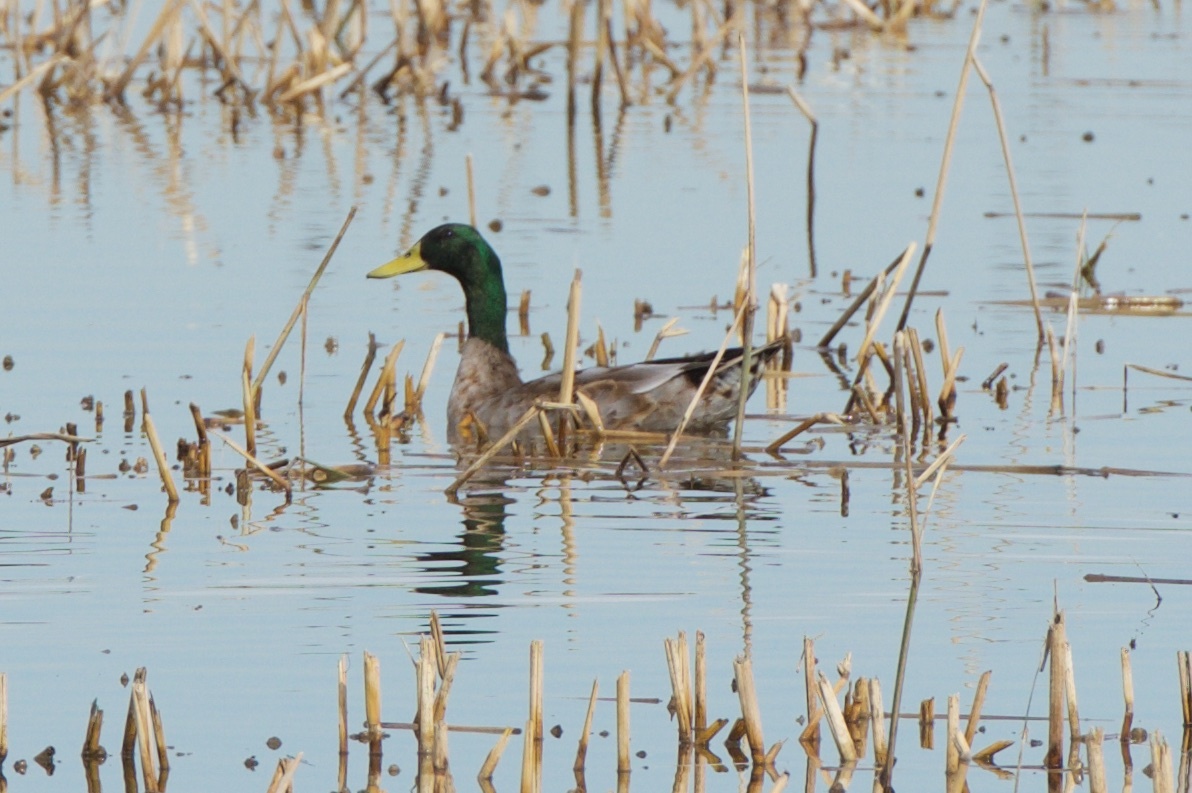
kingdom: Animalia
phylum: Chordata
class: Aves
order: Anseriformes
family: Anatidae
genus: Anas
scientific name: Anas platyrhynchos
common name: Mallard
